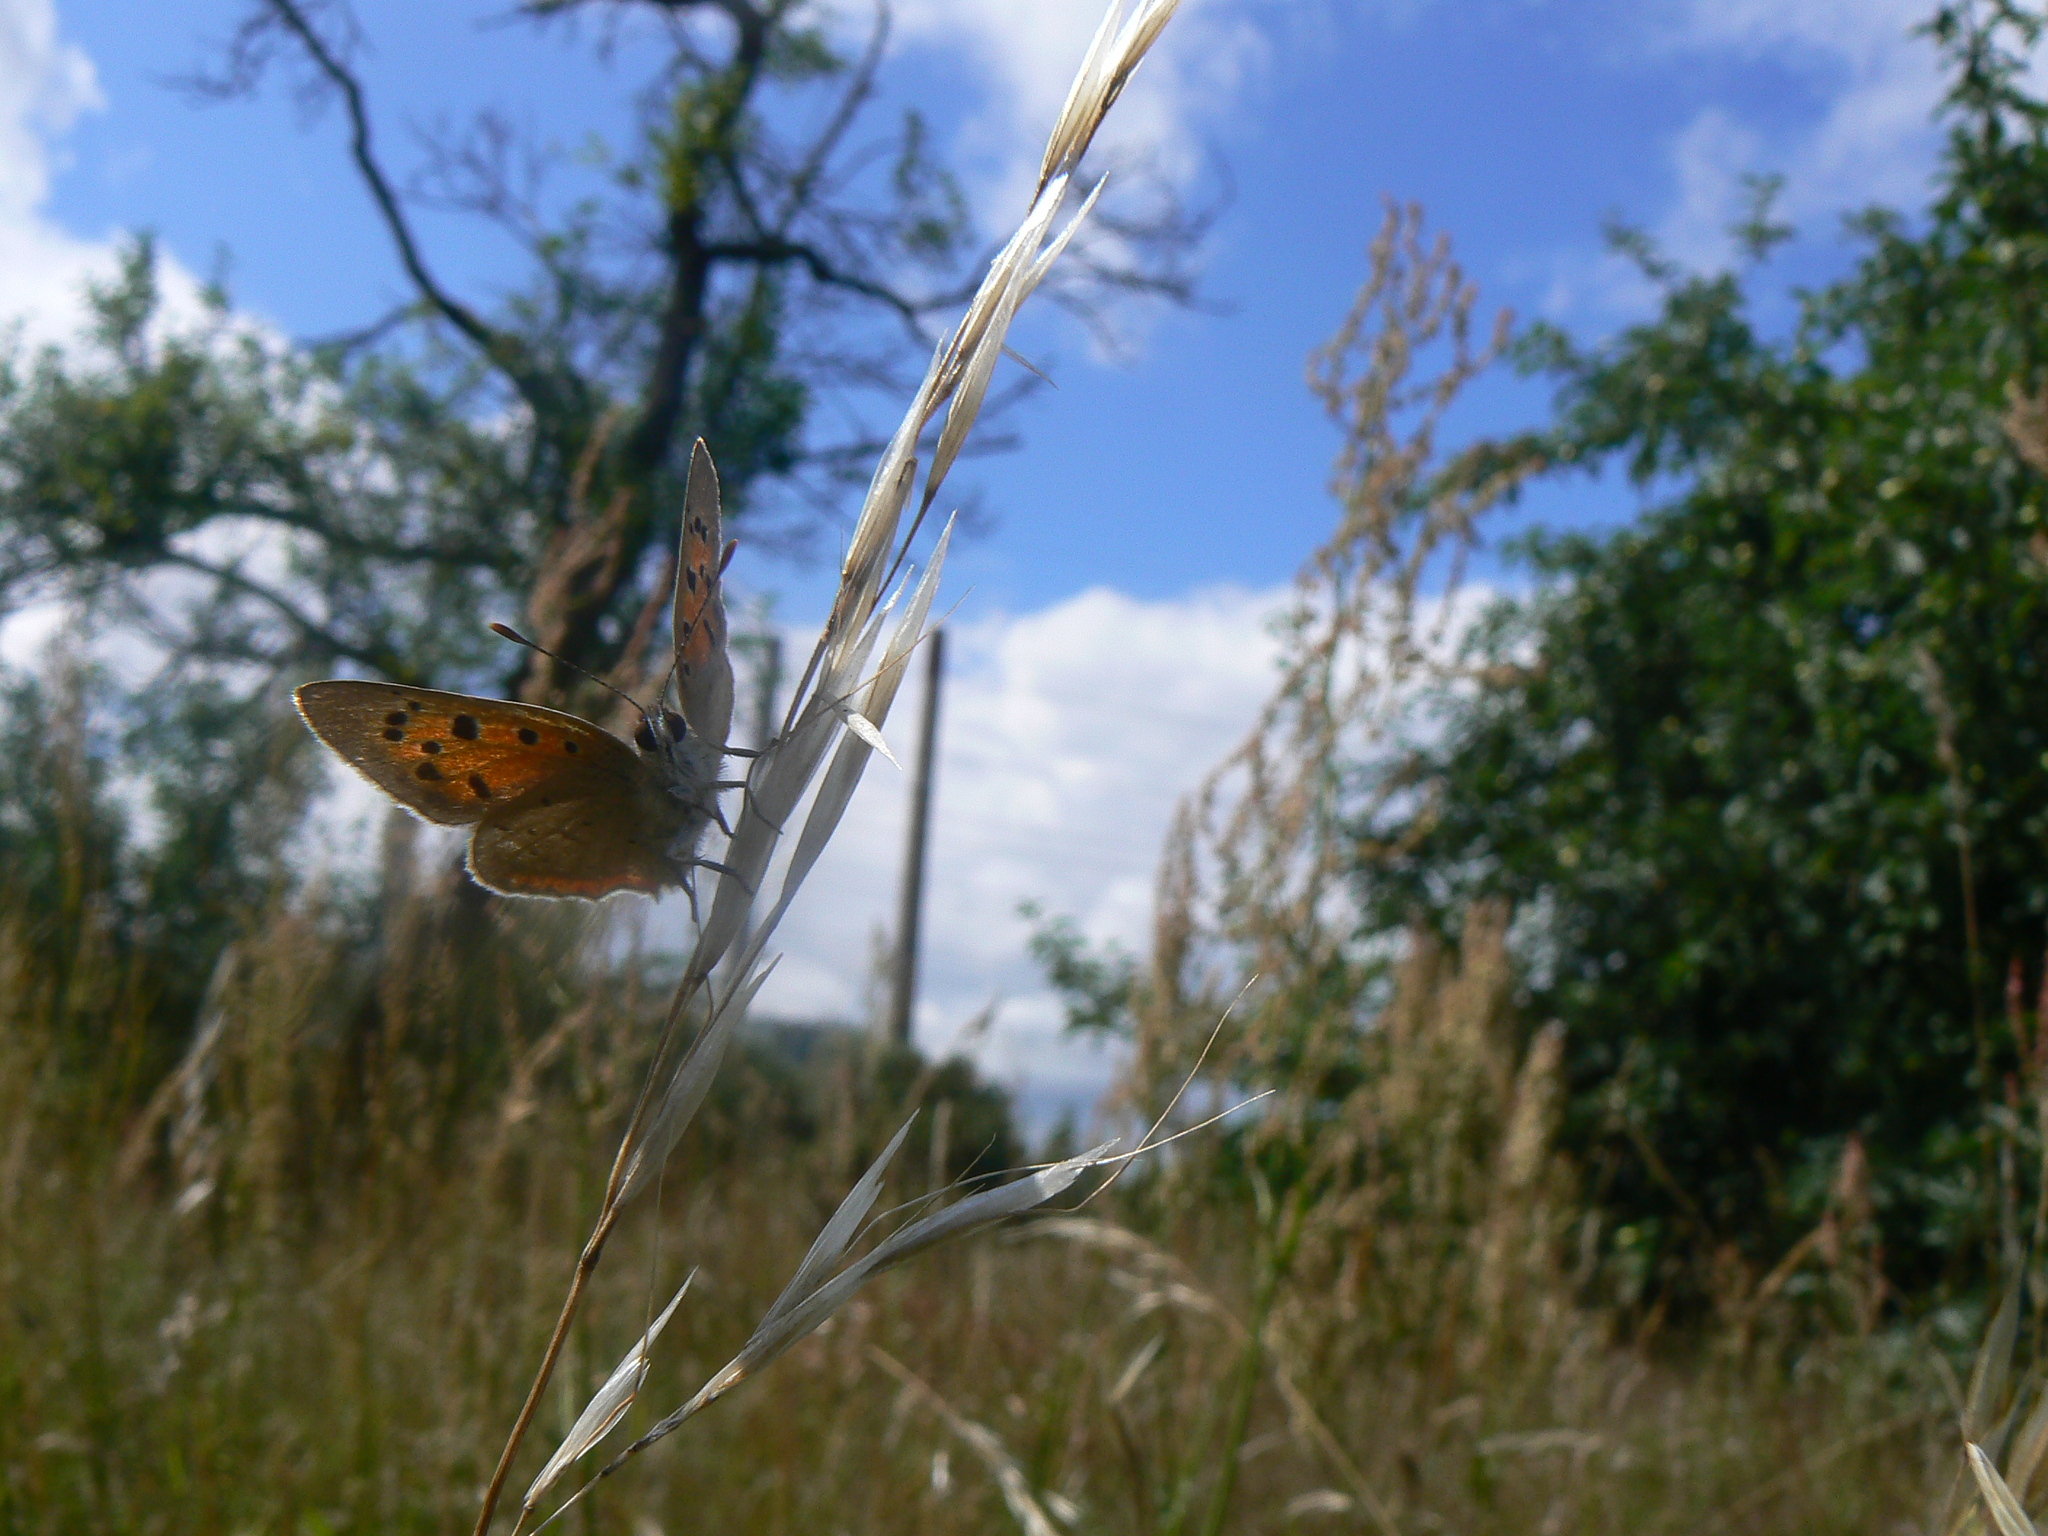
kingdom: Animalia
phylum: Arthropoda
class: Insecta
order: Lepidoptera
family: Lycaenidae
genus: Lycaena
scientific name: Lycaena phlaeas
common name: Small copper
